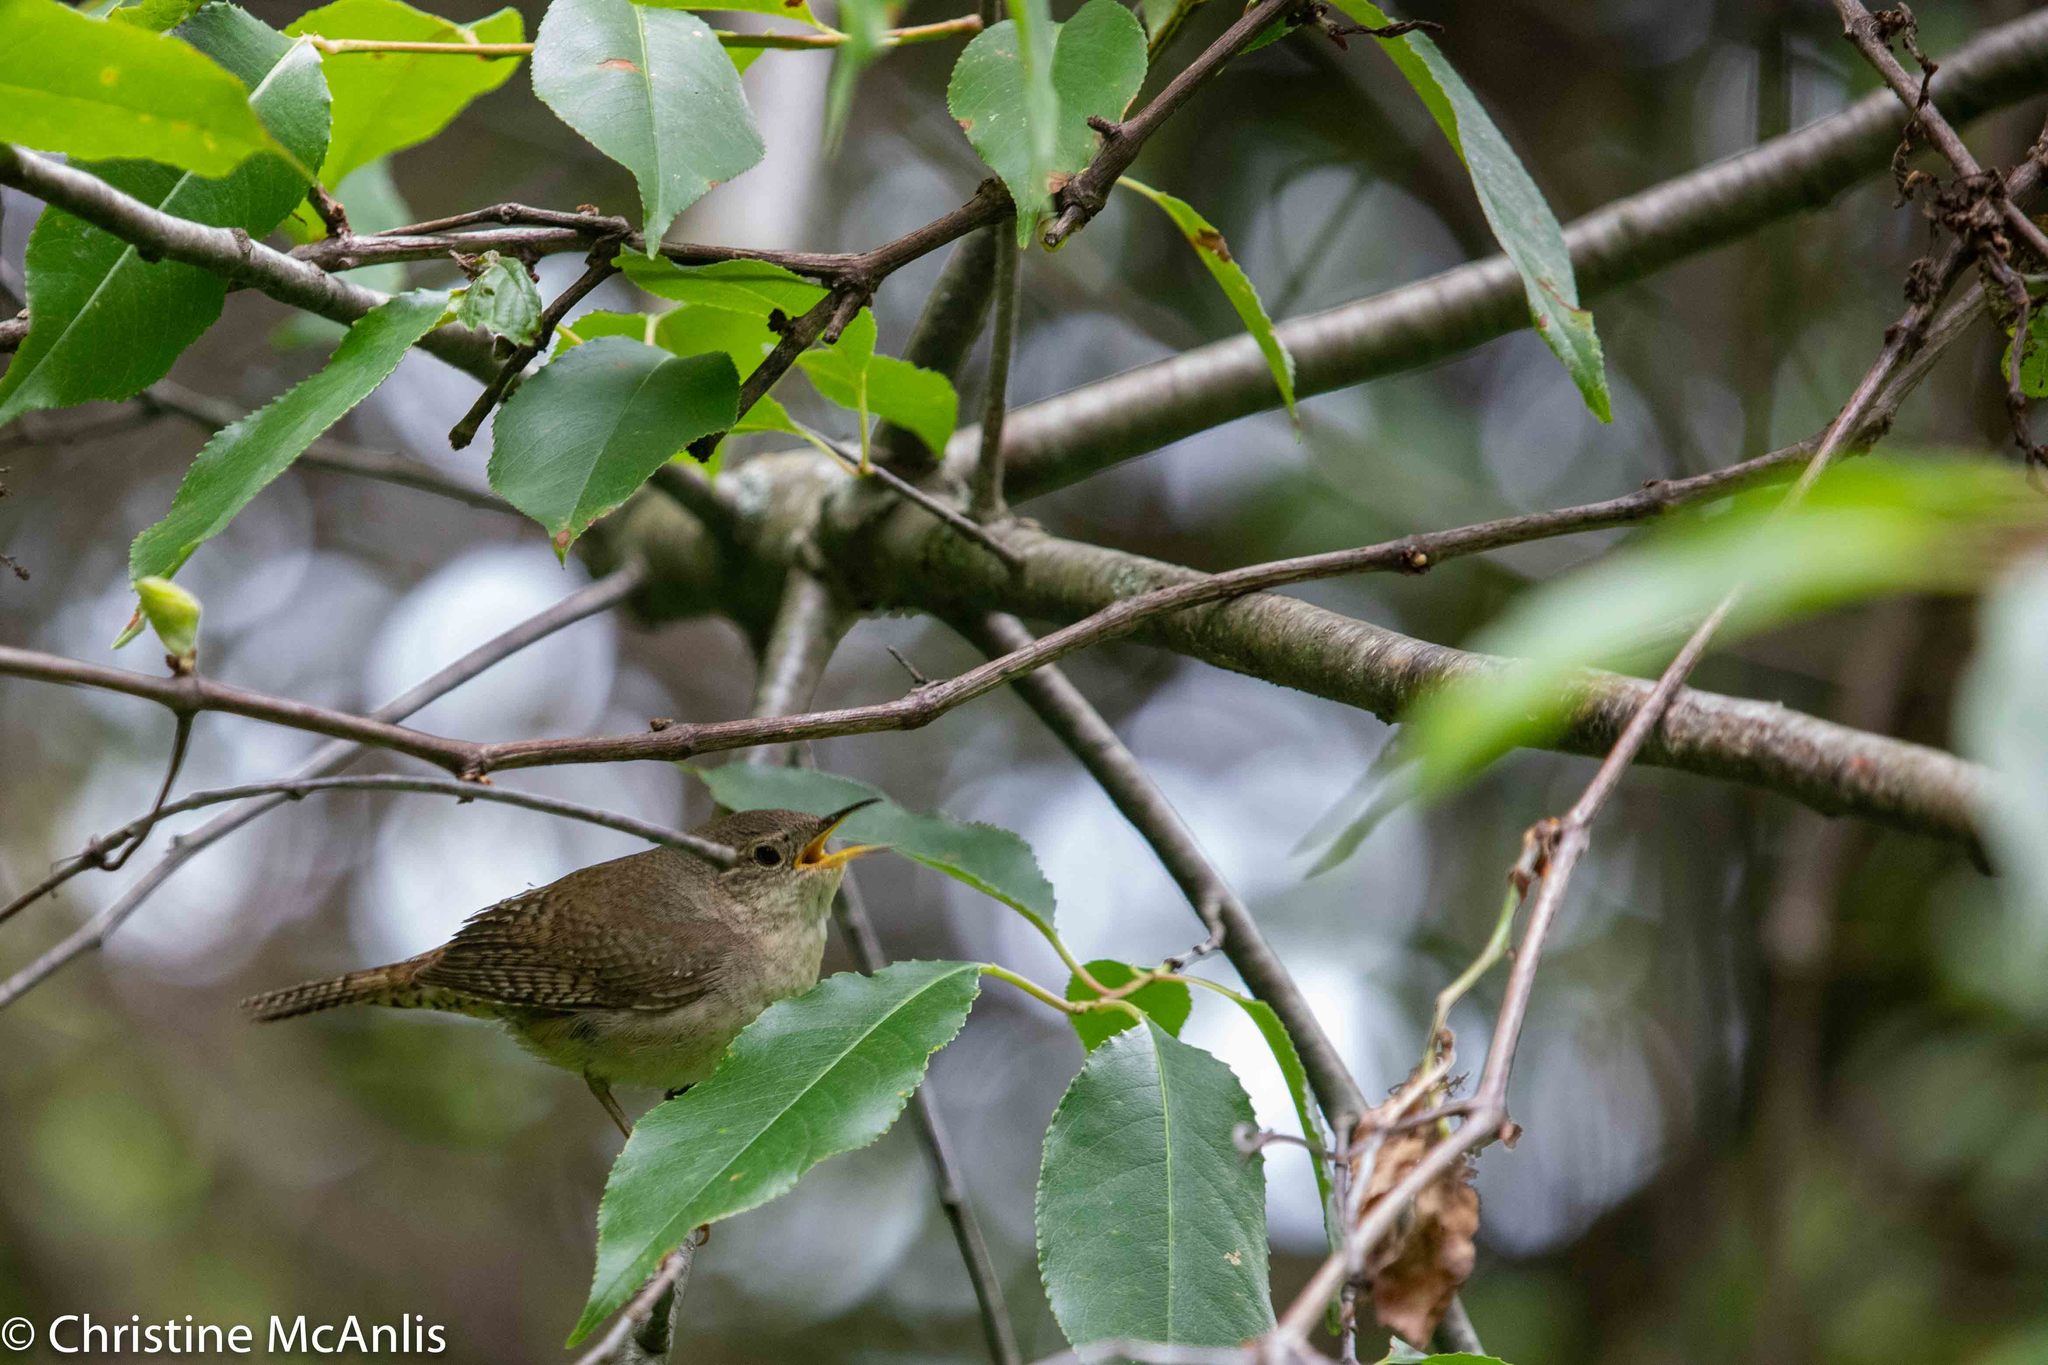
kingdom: Animalia
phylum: Chordata
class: Aves
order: Passeriformes
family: Troglodytidae
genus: Troglodytes
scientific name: Troglodytes aedon
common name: House wren
